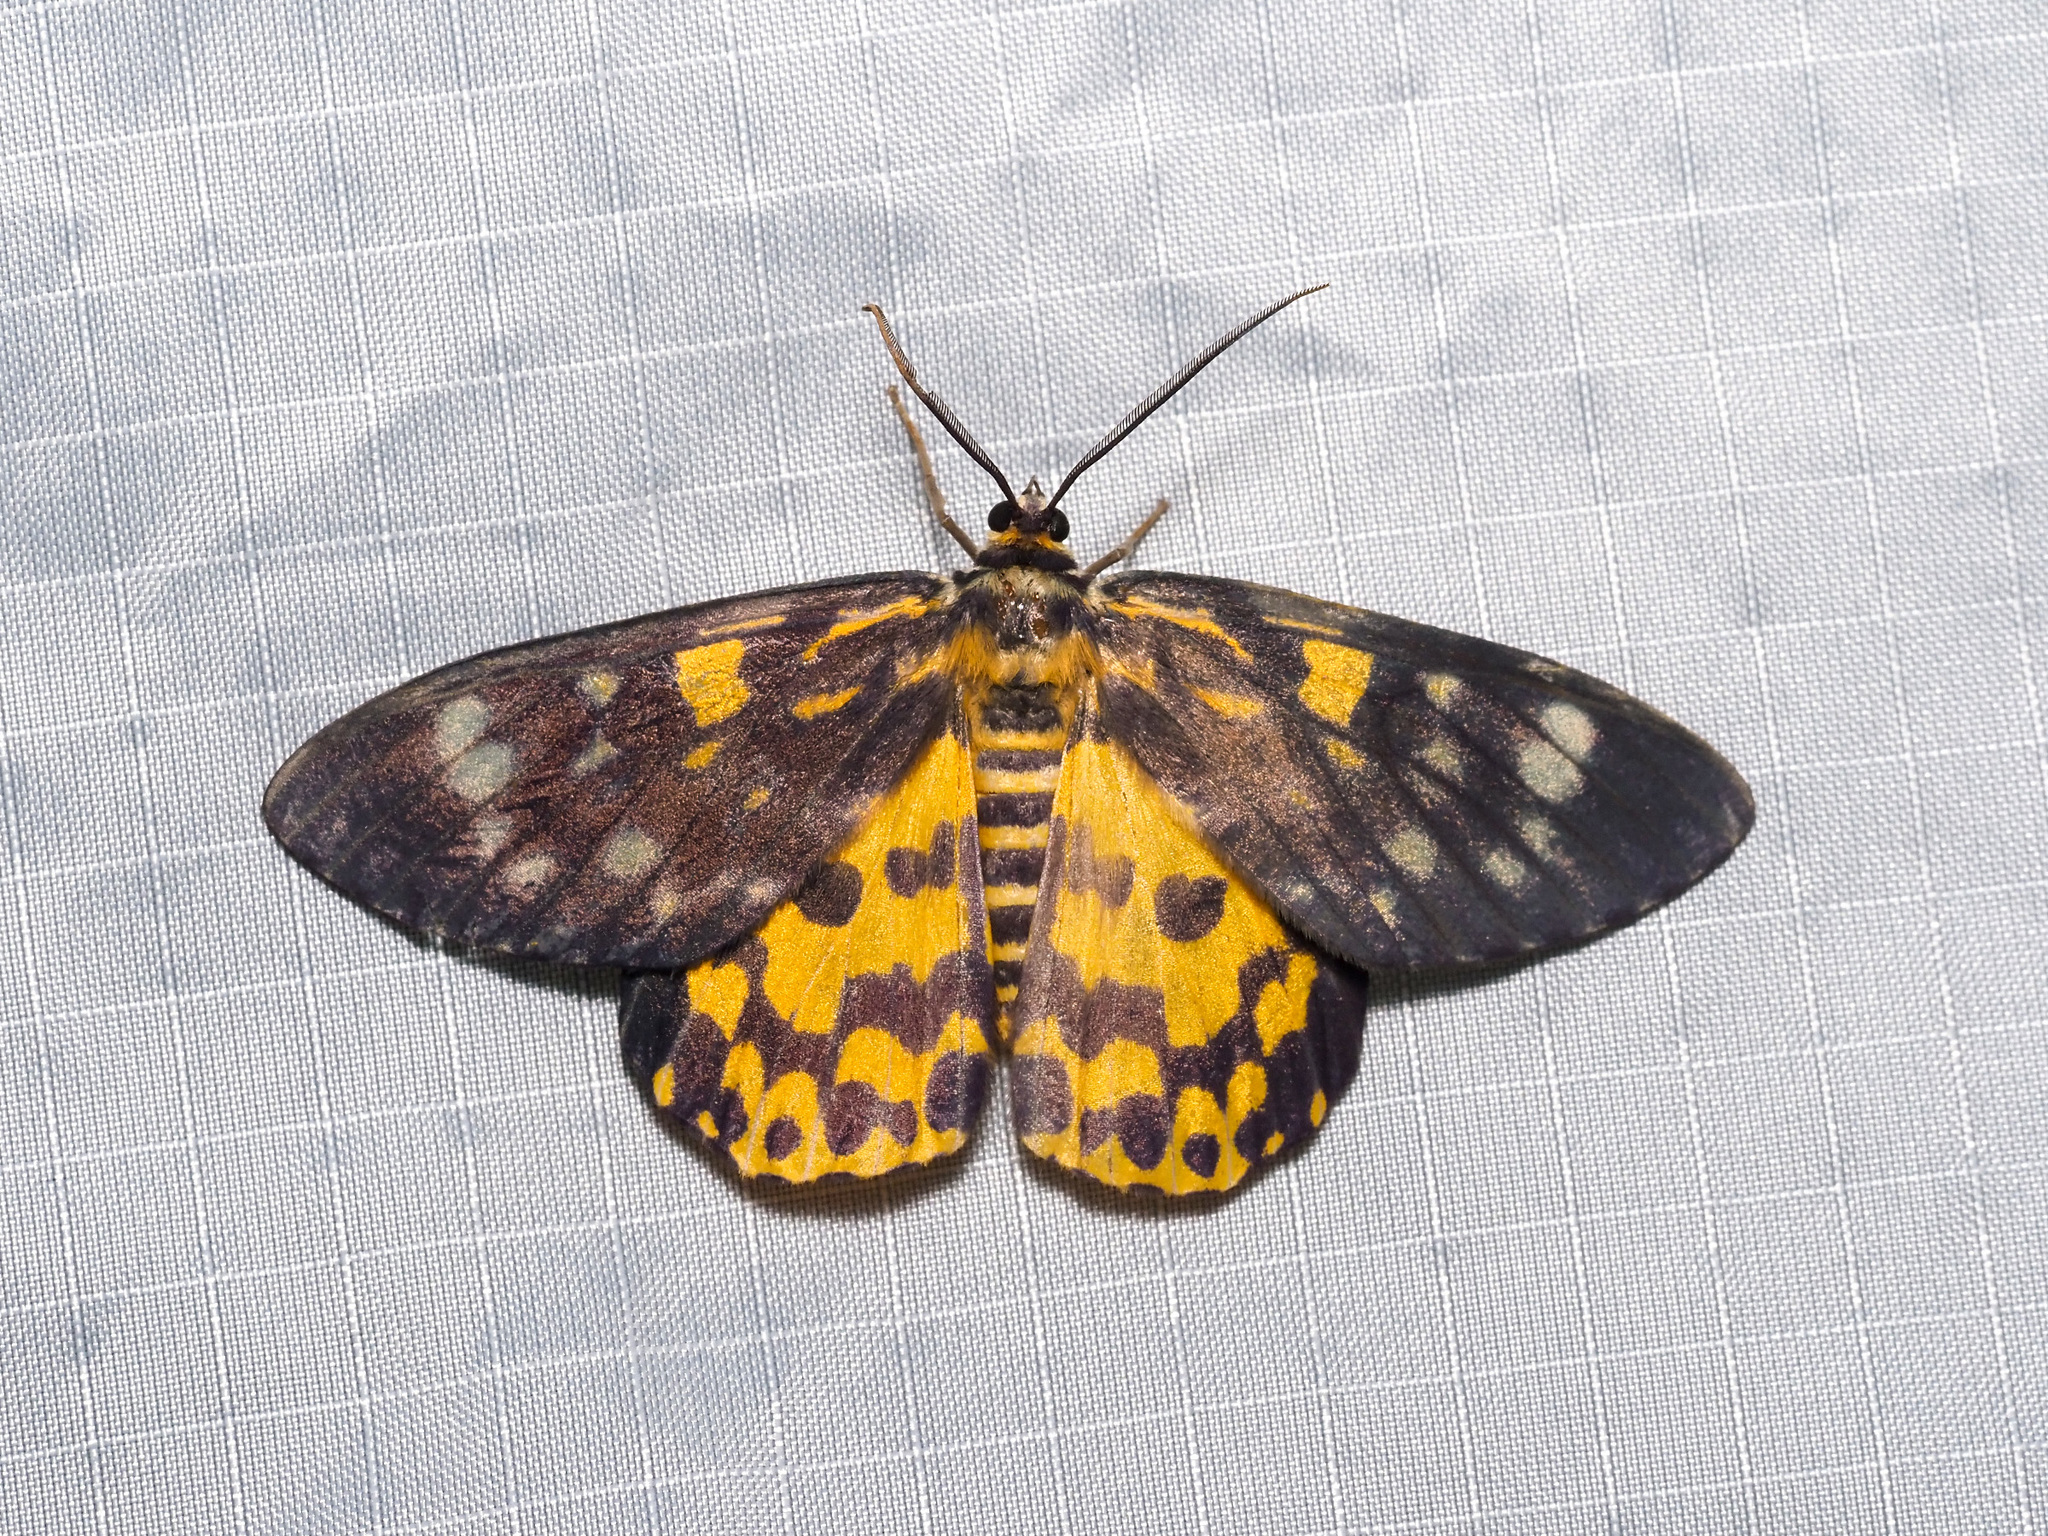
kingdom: Animalia
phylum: Arthropoda
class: Insecta
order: Lepidoptera
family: Geometridae
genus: Dysphania
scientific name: Dysphania bivexillata
